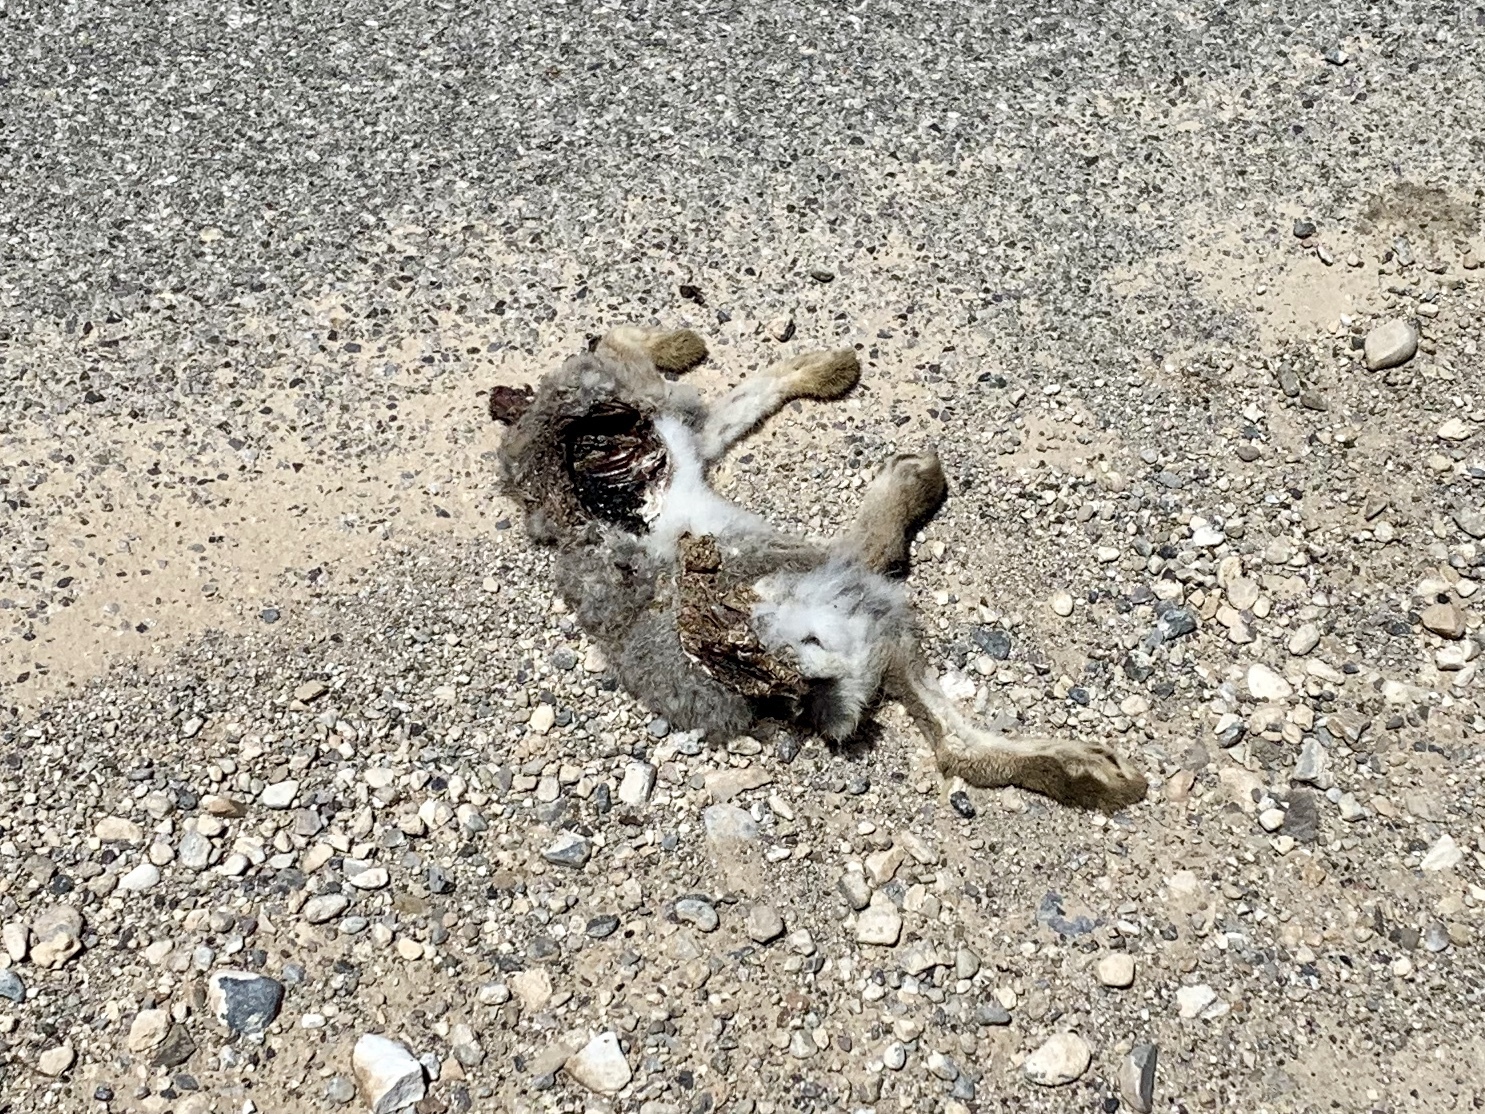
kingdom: Animalia
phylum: Chordata
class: Mammalia
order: Lagomorpha
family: Leporidae
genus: Sylvilagus
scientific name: Sylvilagus audubonii
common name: Desert cottontail
